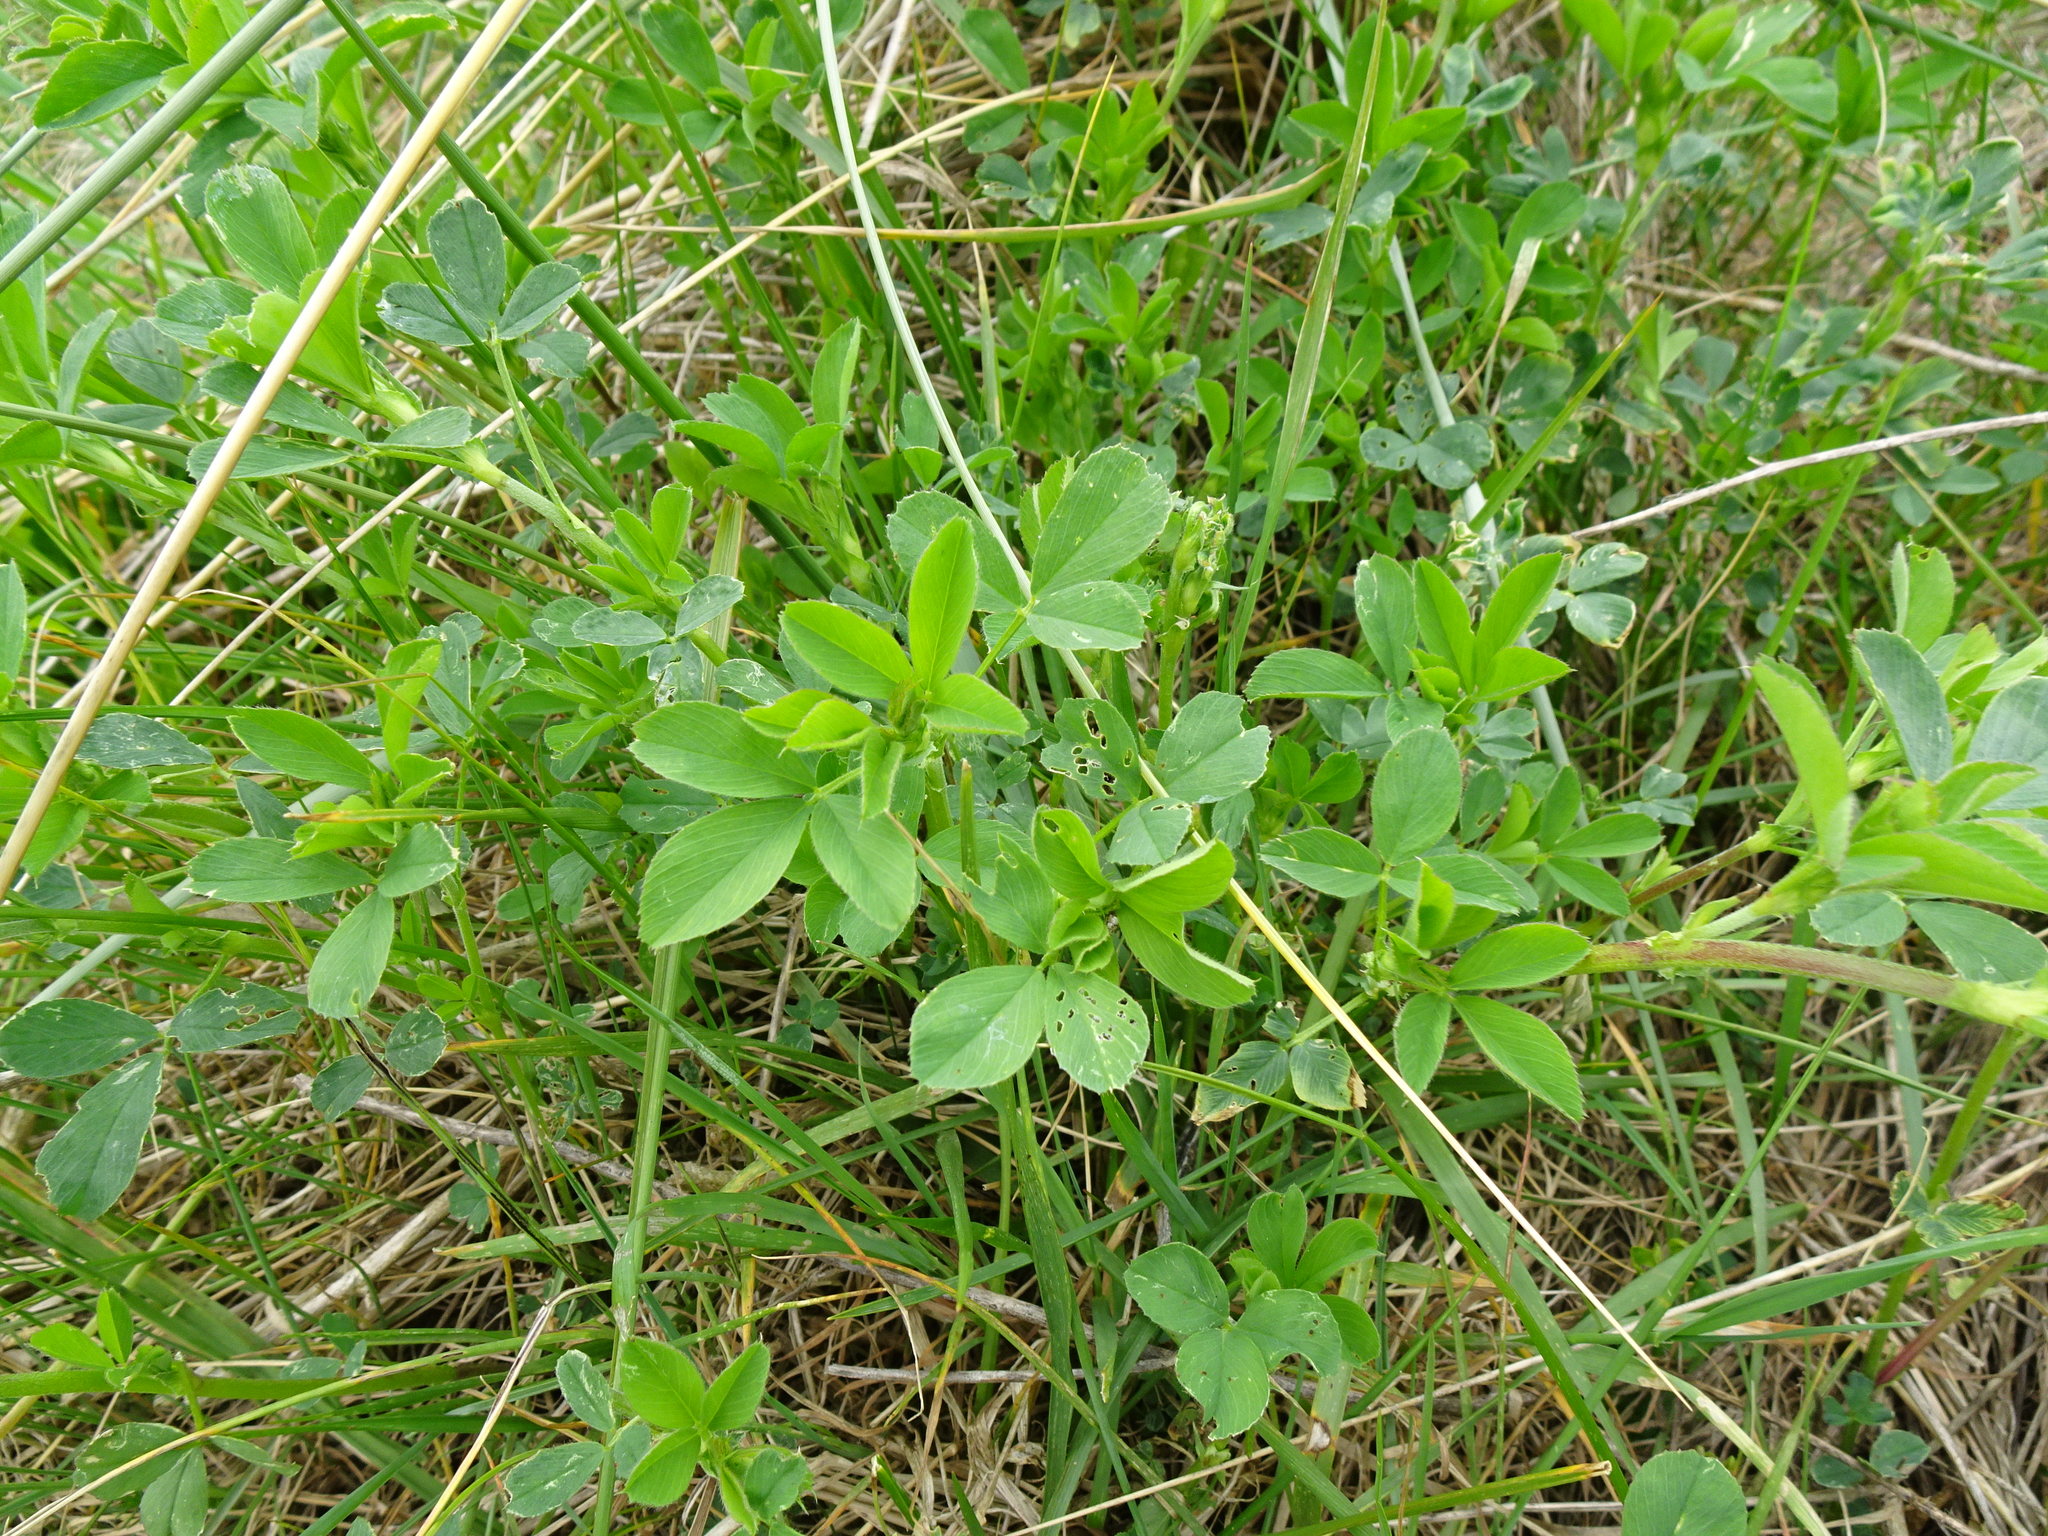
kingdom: Plantae
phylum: Tracheophyta
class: Magnoliopsida
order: Fabales
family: Fabaceae
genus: Medicago
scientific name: Medicago sativa
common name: Alfalfa
